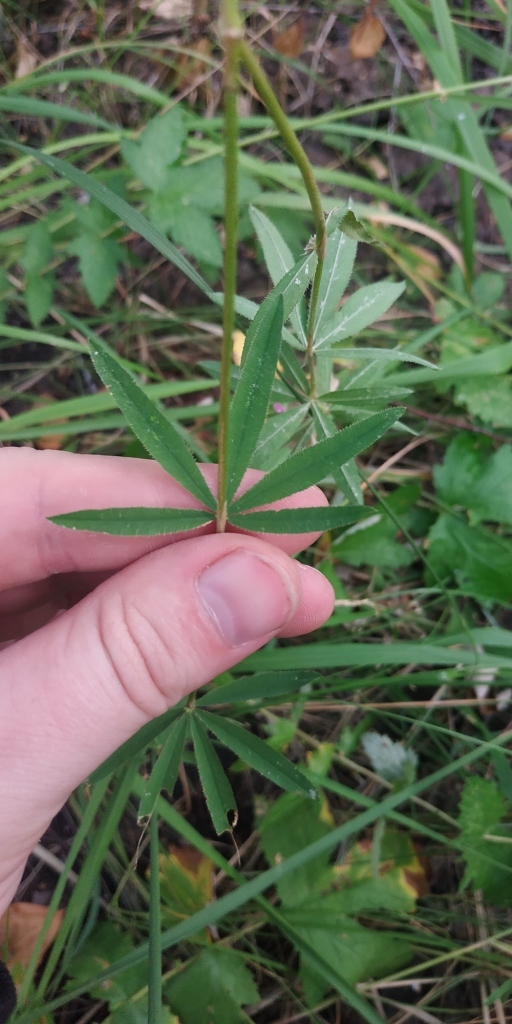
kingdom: Plantae
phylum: Tracheophyta
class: Magnoliopsida
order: Fabales
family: Fabaceae
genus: Trifolium
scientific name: Trifolium lupinaster
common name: Lupine clover
